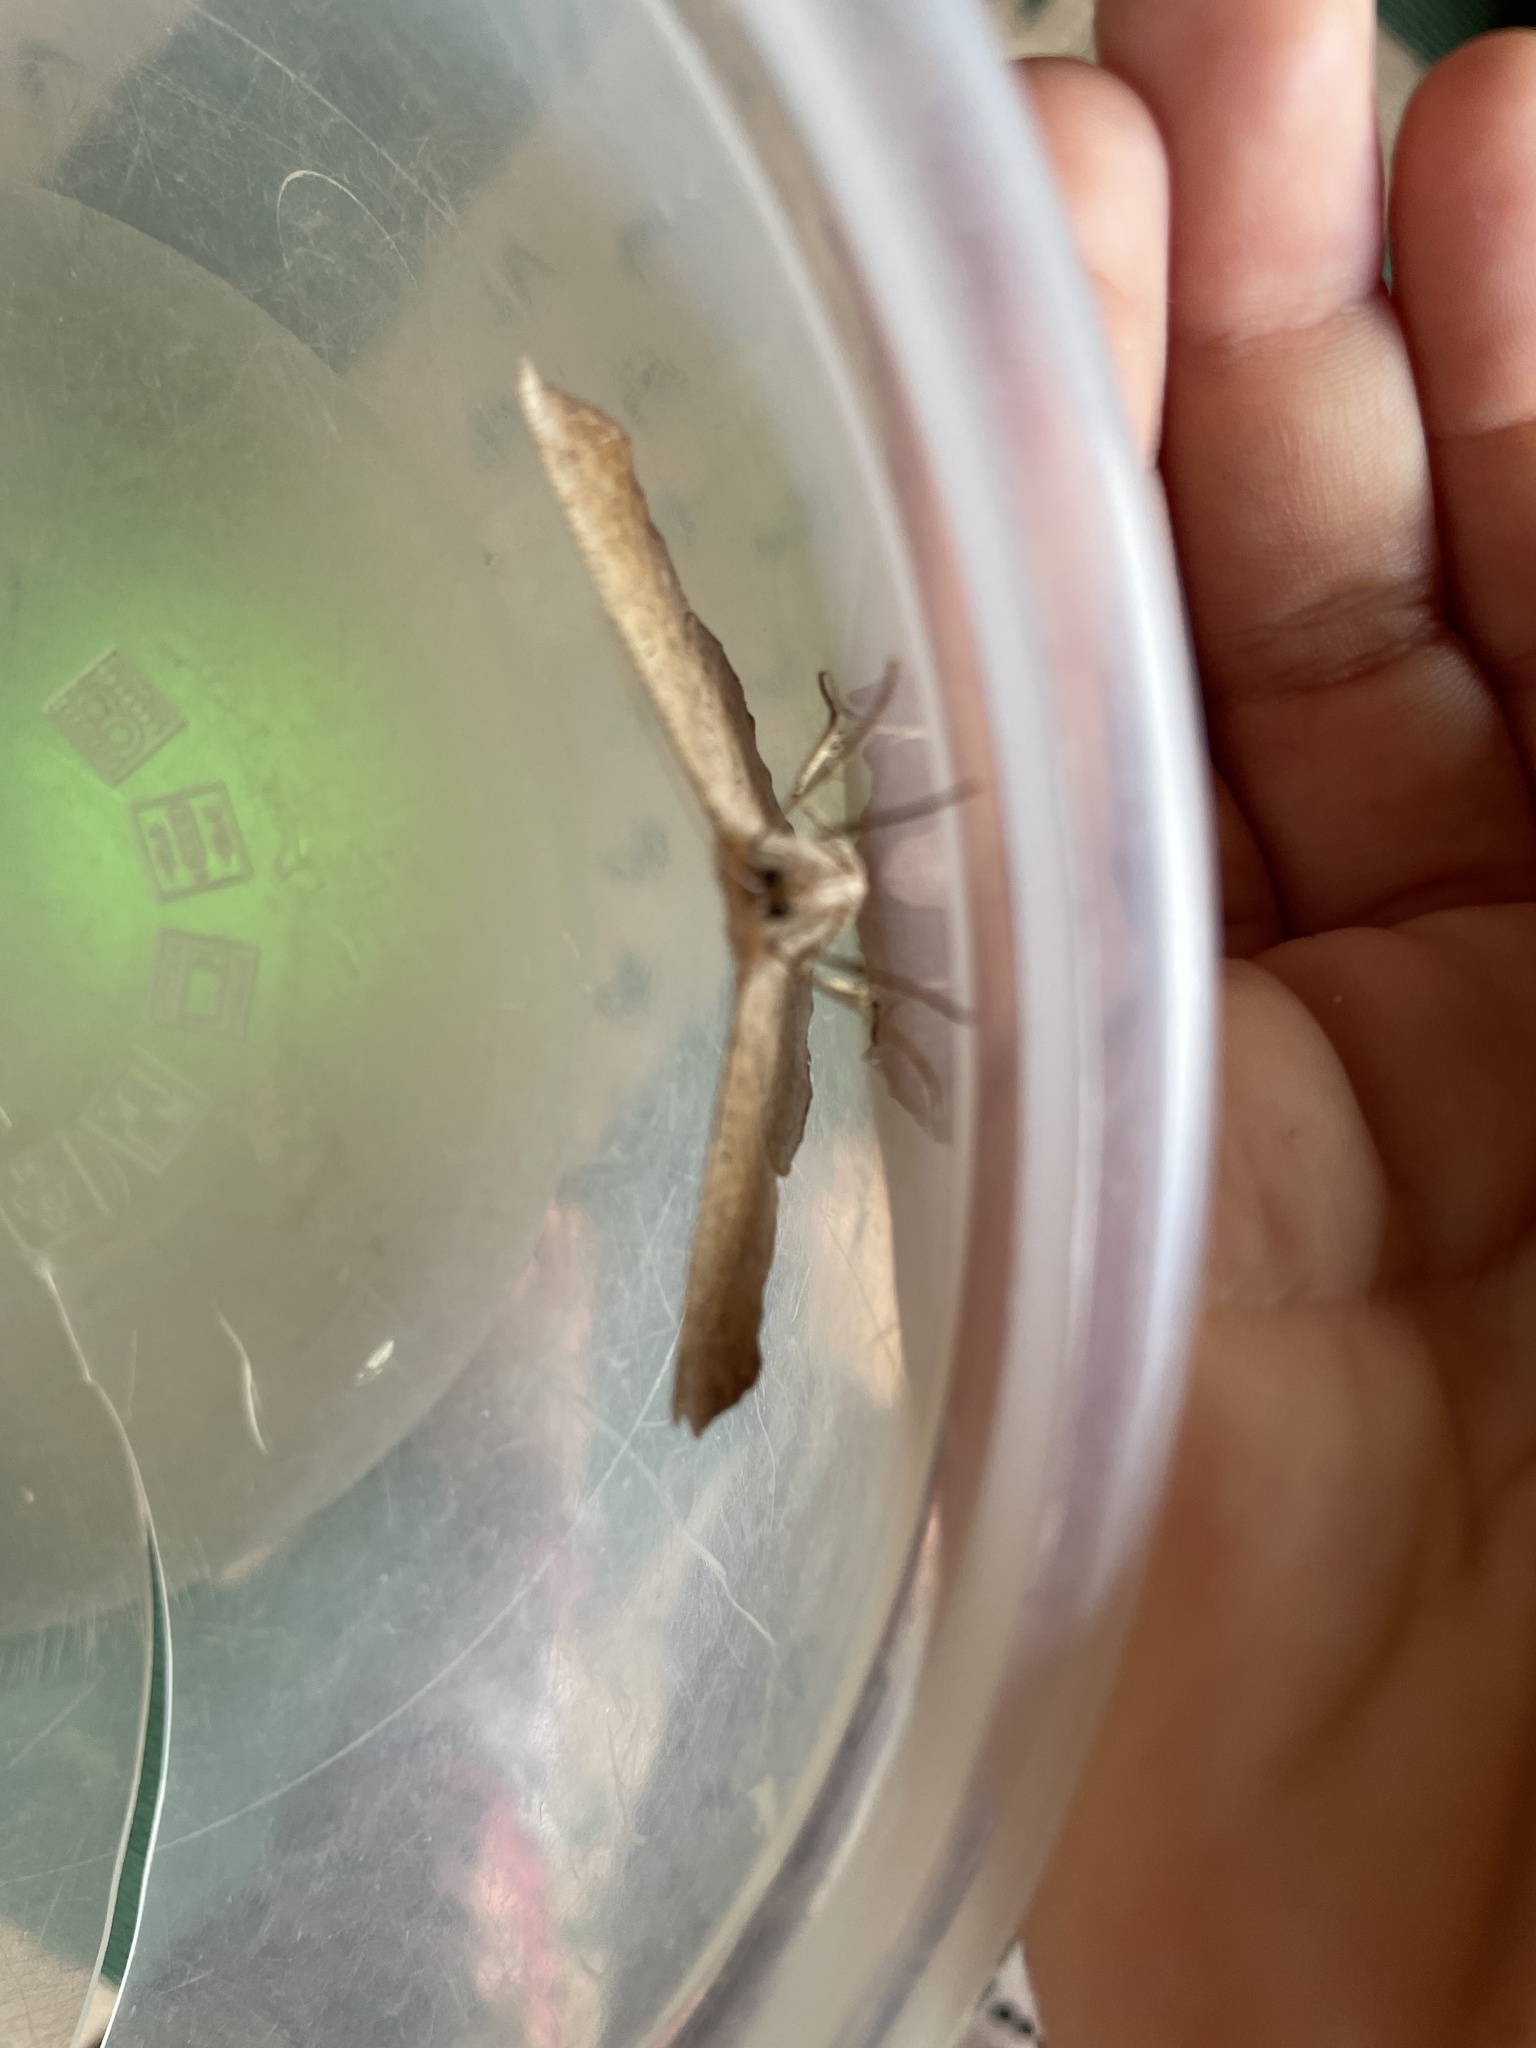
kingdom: Animalia
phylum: Arthropoda
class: Insecta
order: Lepidoptera
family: Geometridae
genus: Prochoerodes
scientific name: Prochoerodes lineola
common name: Large maple spanworm
